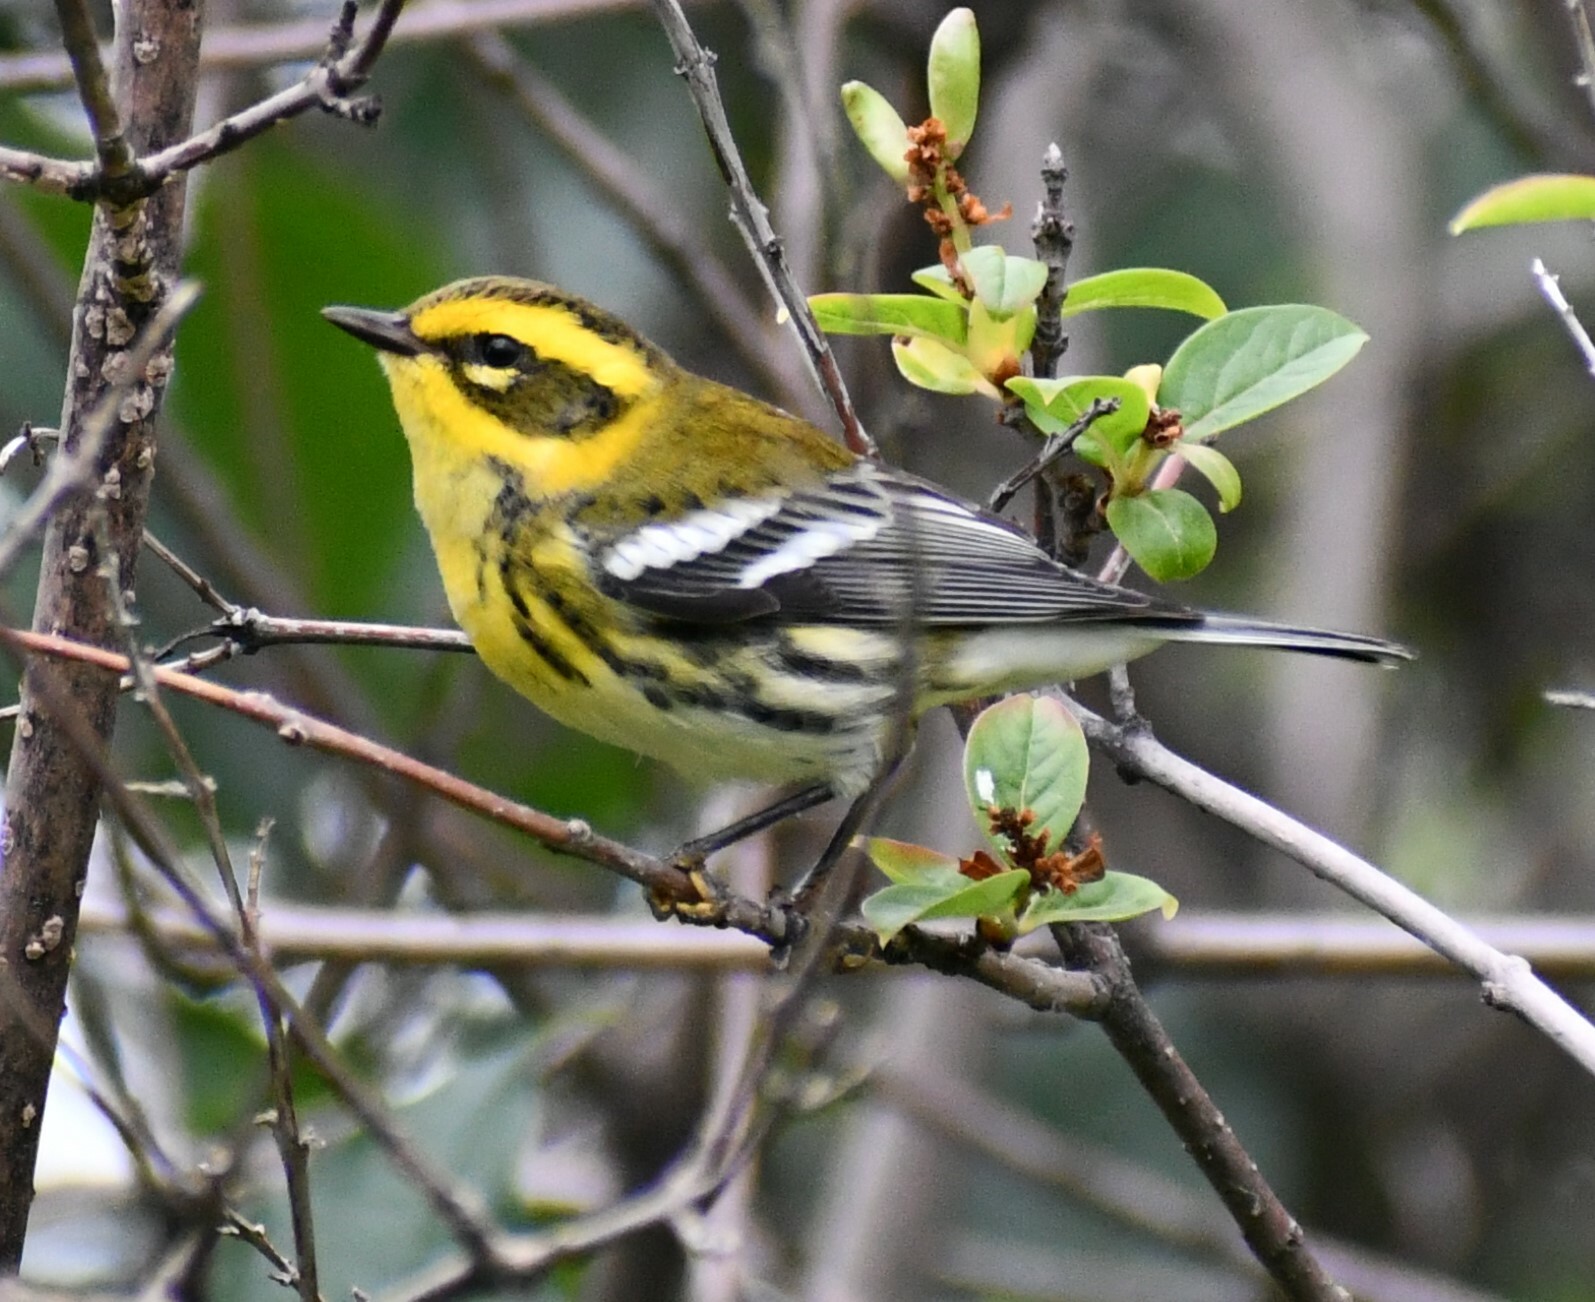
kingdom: Animalia
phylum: Chordata
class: Aves
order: Passeriformes
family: Parulidae
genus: Setophaga
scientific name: Setophaga townsendi
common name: Townsend's warbler
